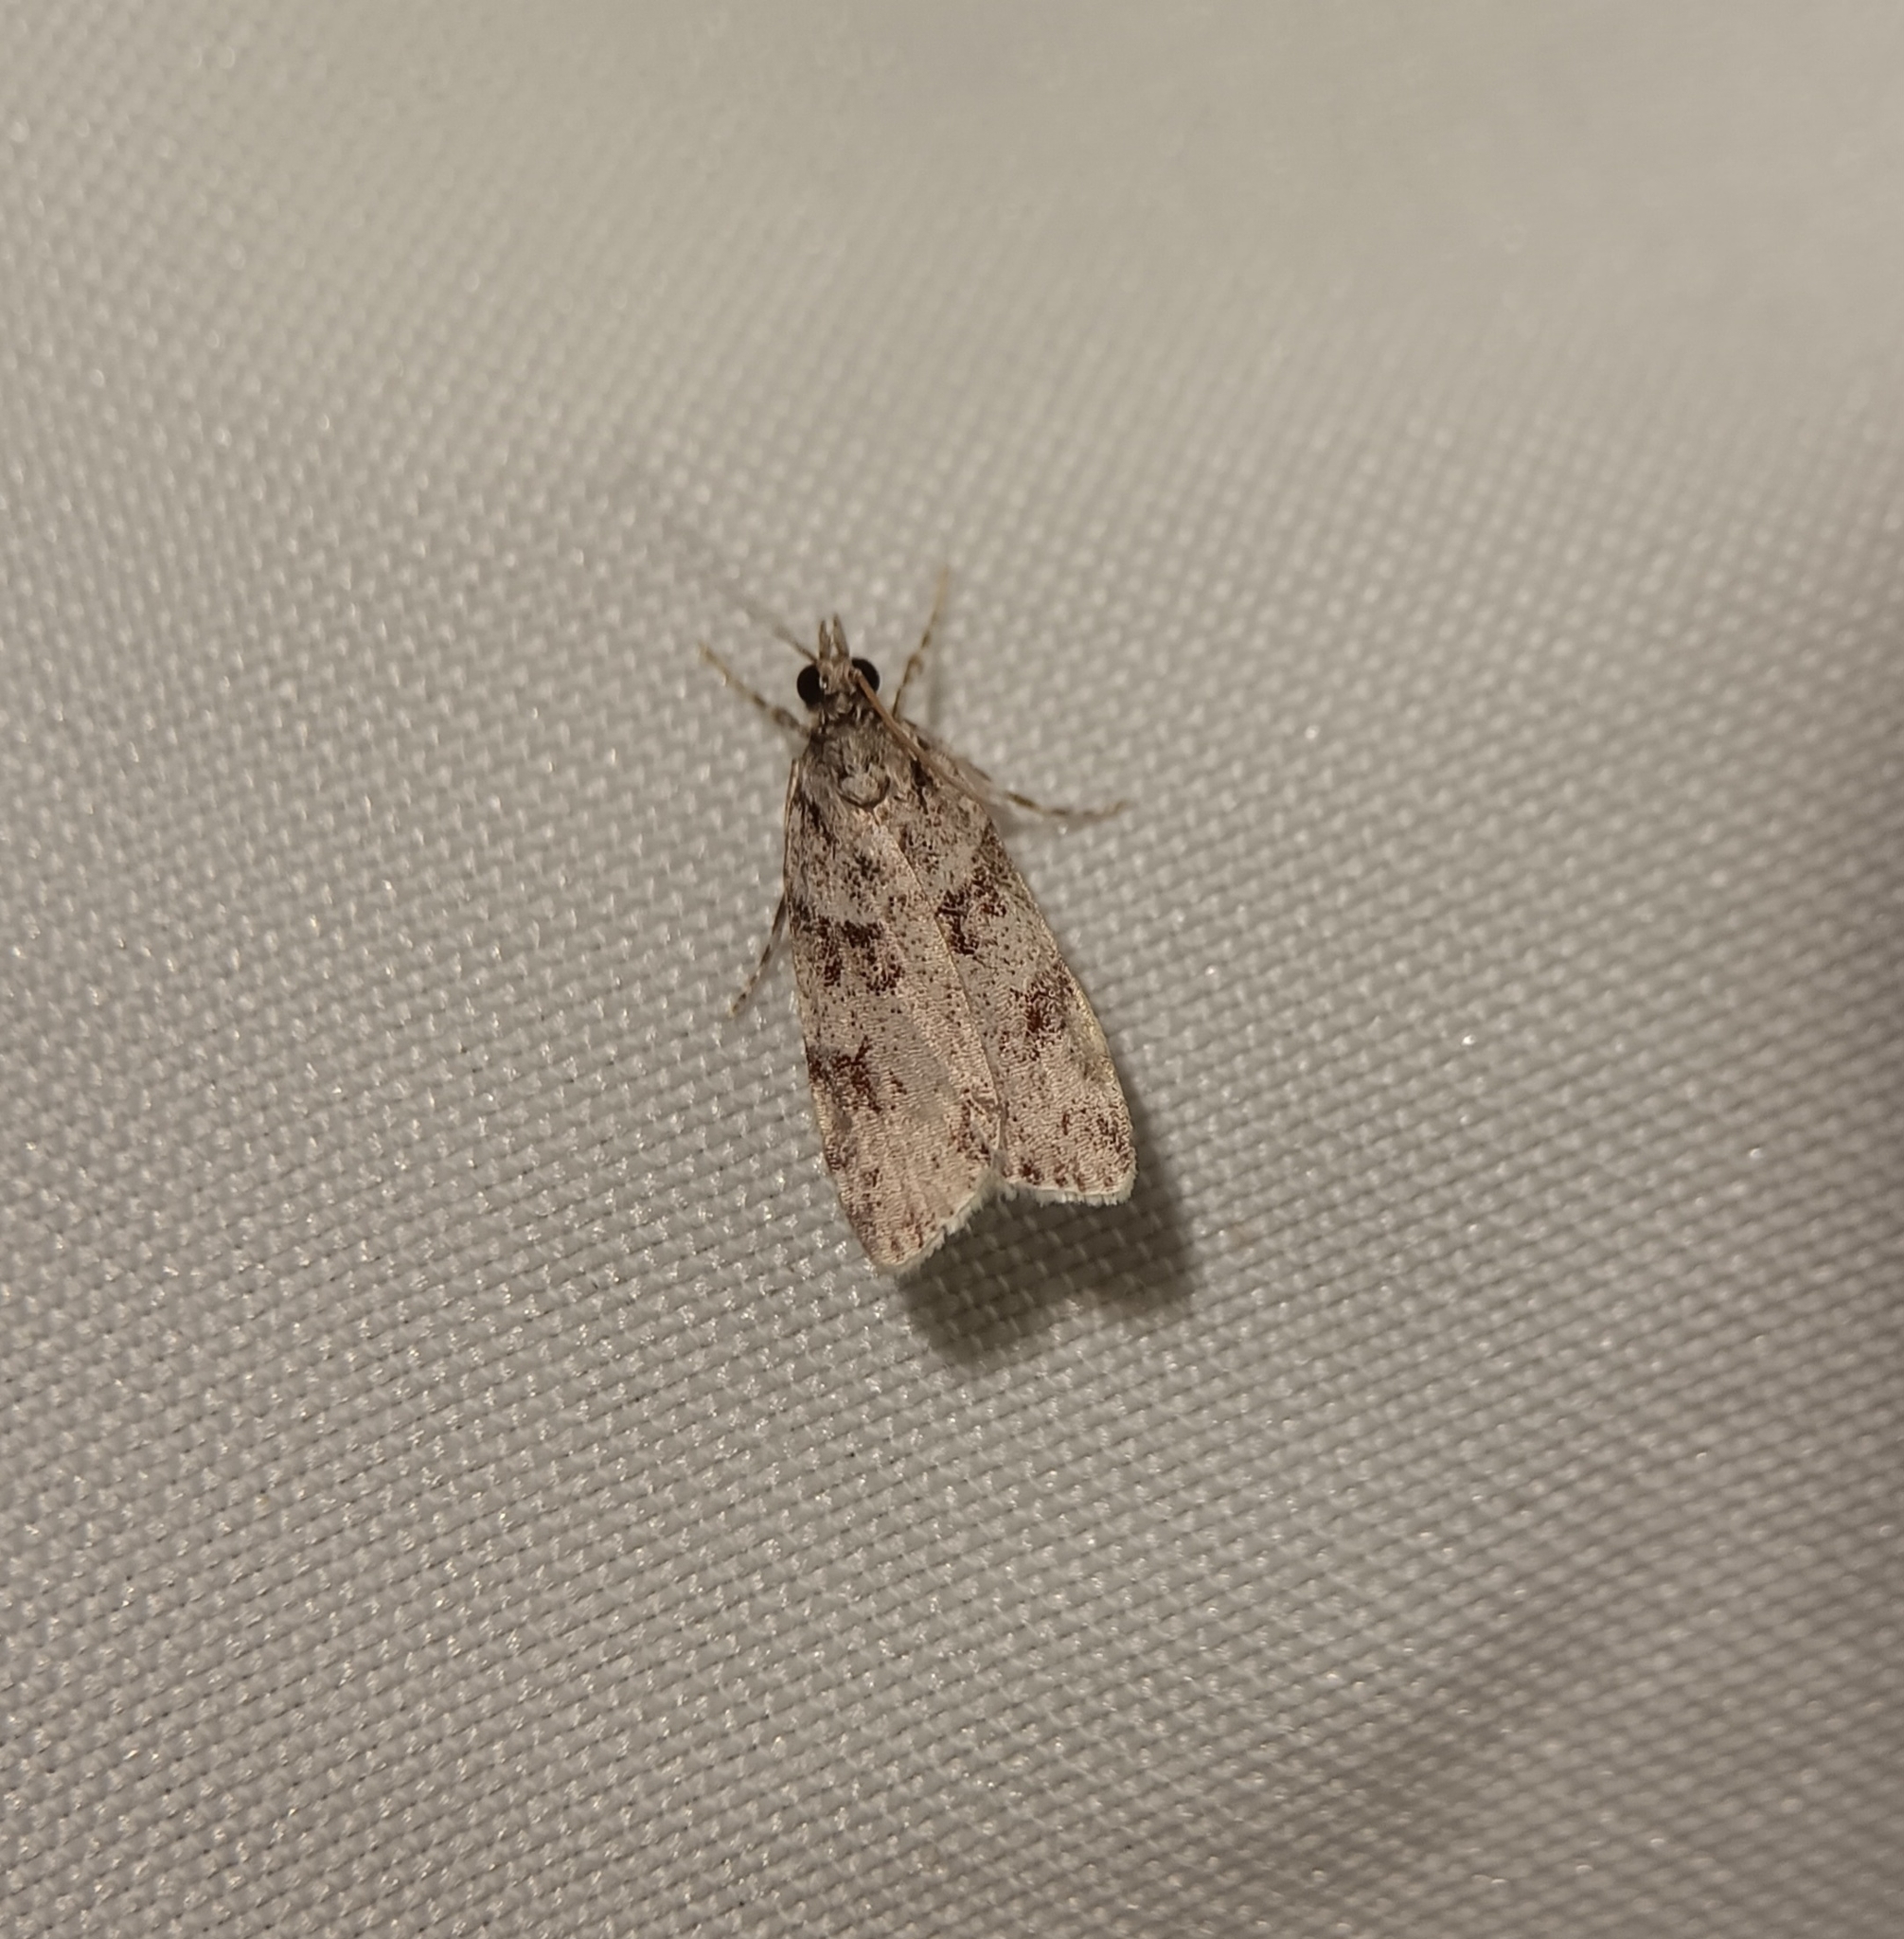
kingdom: Animalia
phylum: Arthropoda
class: Insecta
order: Lepidoptera
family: Crambidae
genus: Scoparia
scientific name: Scoparia biplagialis
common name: Double-striped scoparia moth
